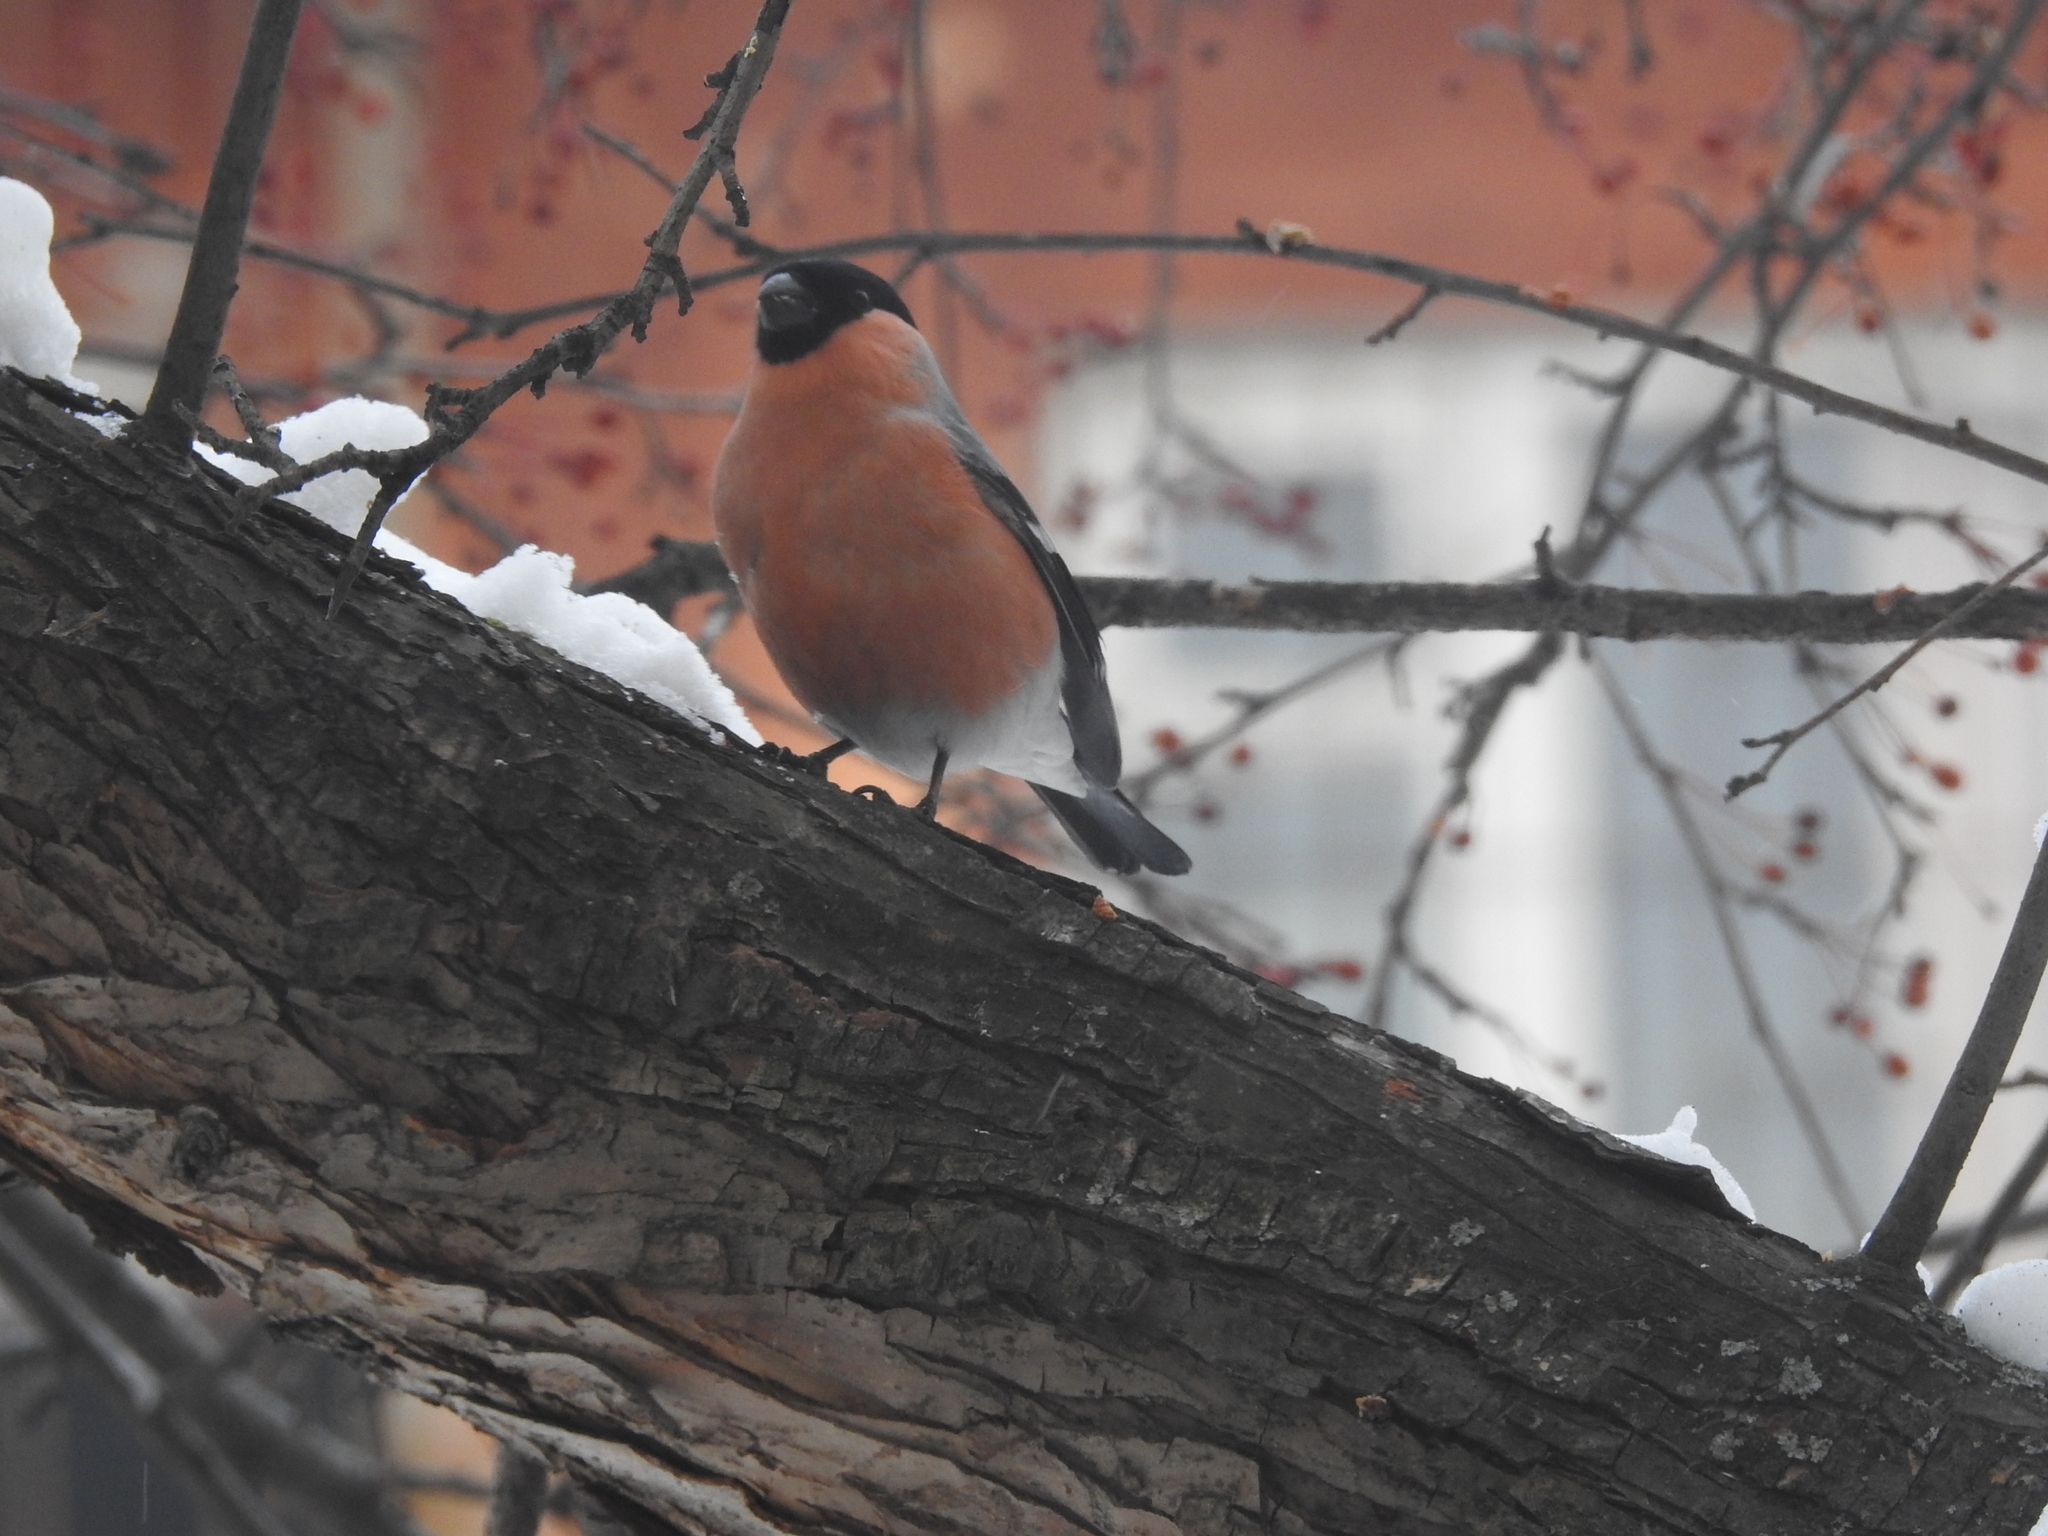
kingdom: Animalia
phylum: Chordata
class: Aves
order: Passeriformes
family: Fringillidae
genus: Pyrrhula
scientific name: Pyrrhula pyrrhula
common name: Eurasian bullfinch
